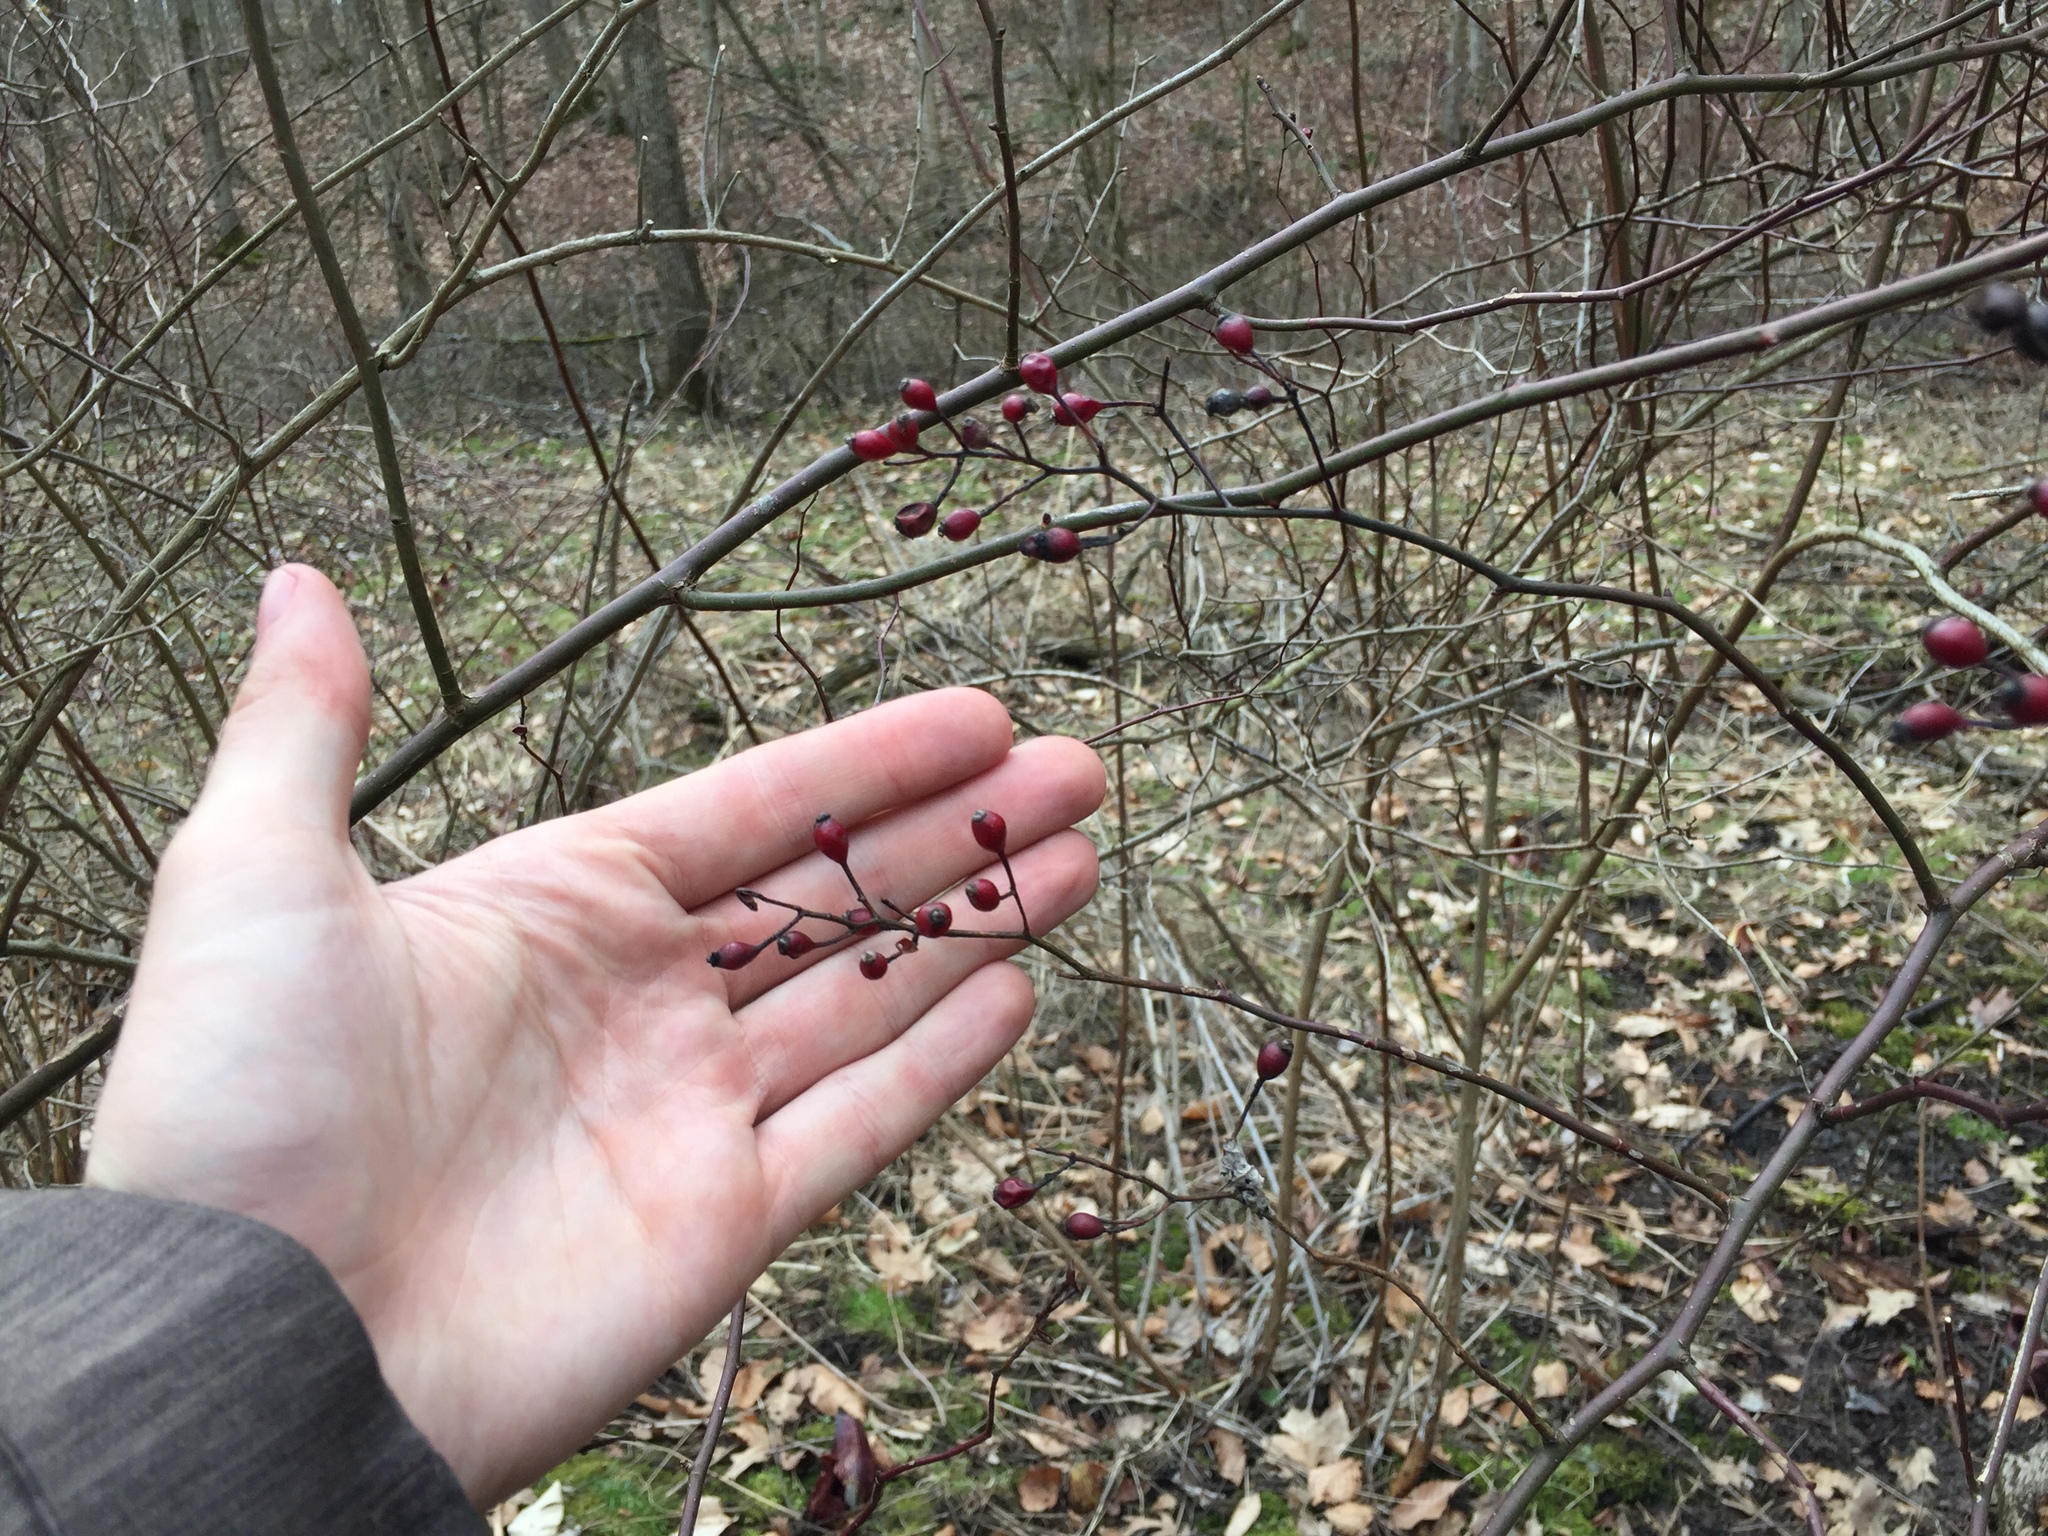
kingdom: Plantae
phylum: Tracheophyta
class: Magnoliopsida
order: Rosales
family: Rosaceae
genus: Rosa
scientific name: Rosa multiflora
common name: Multiflora rose
